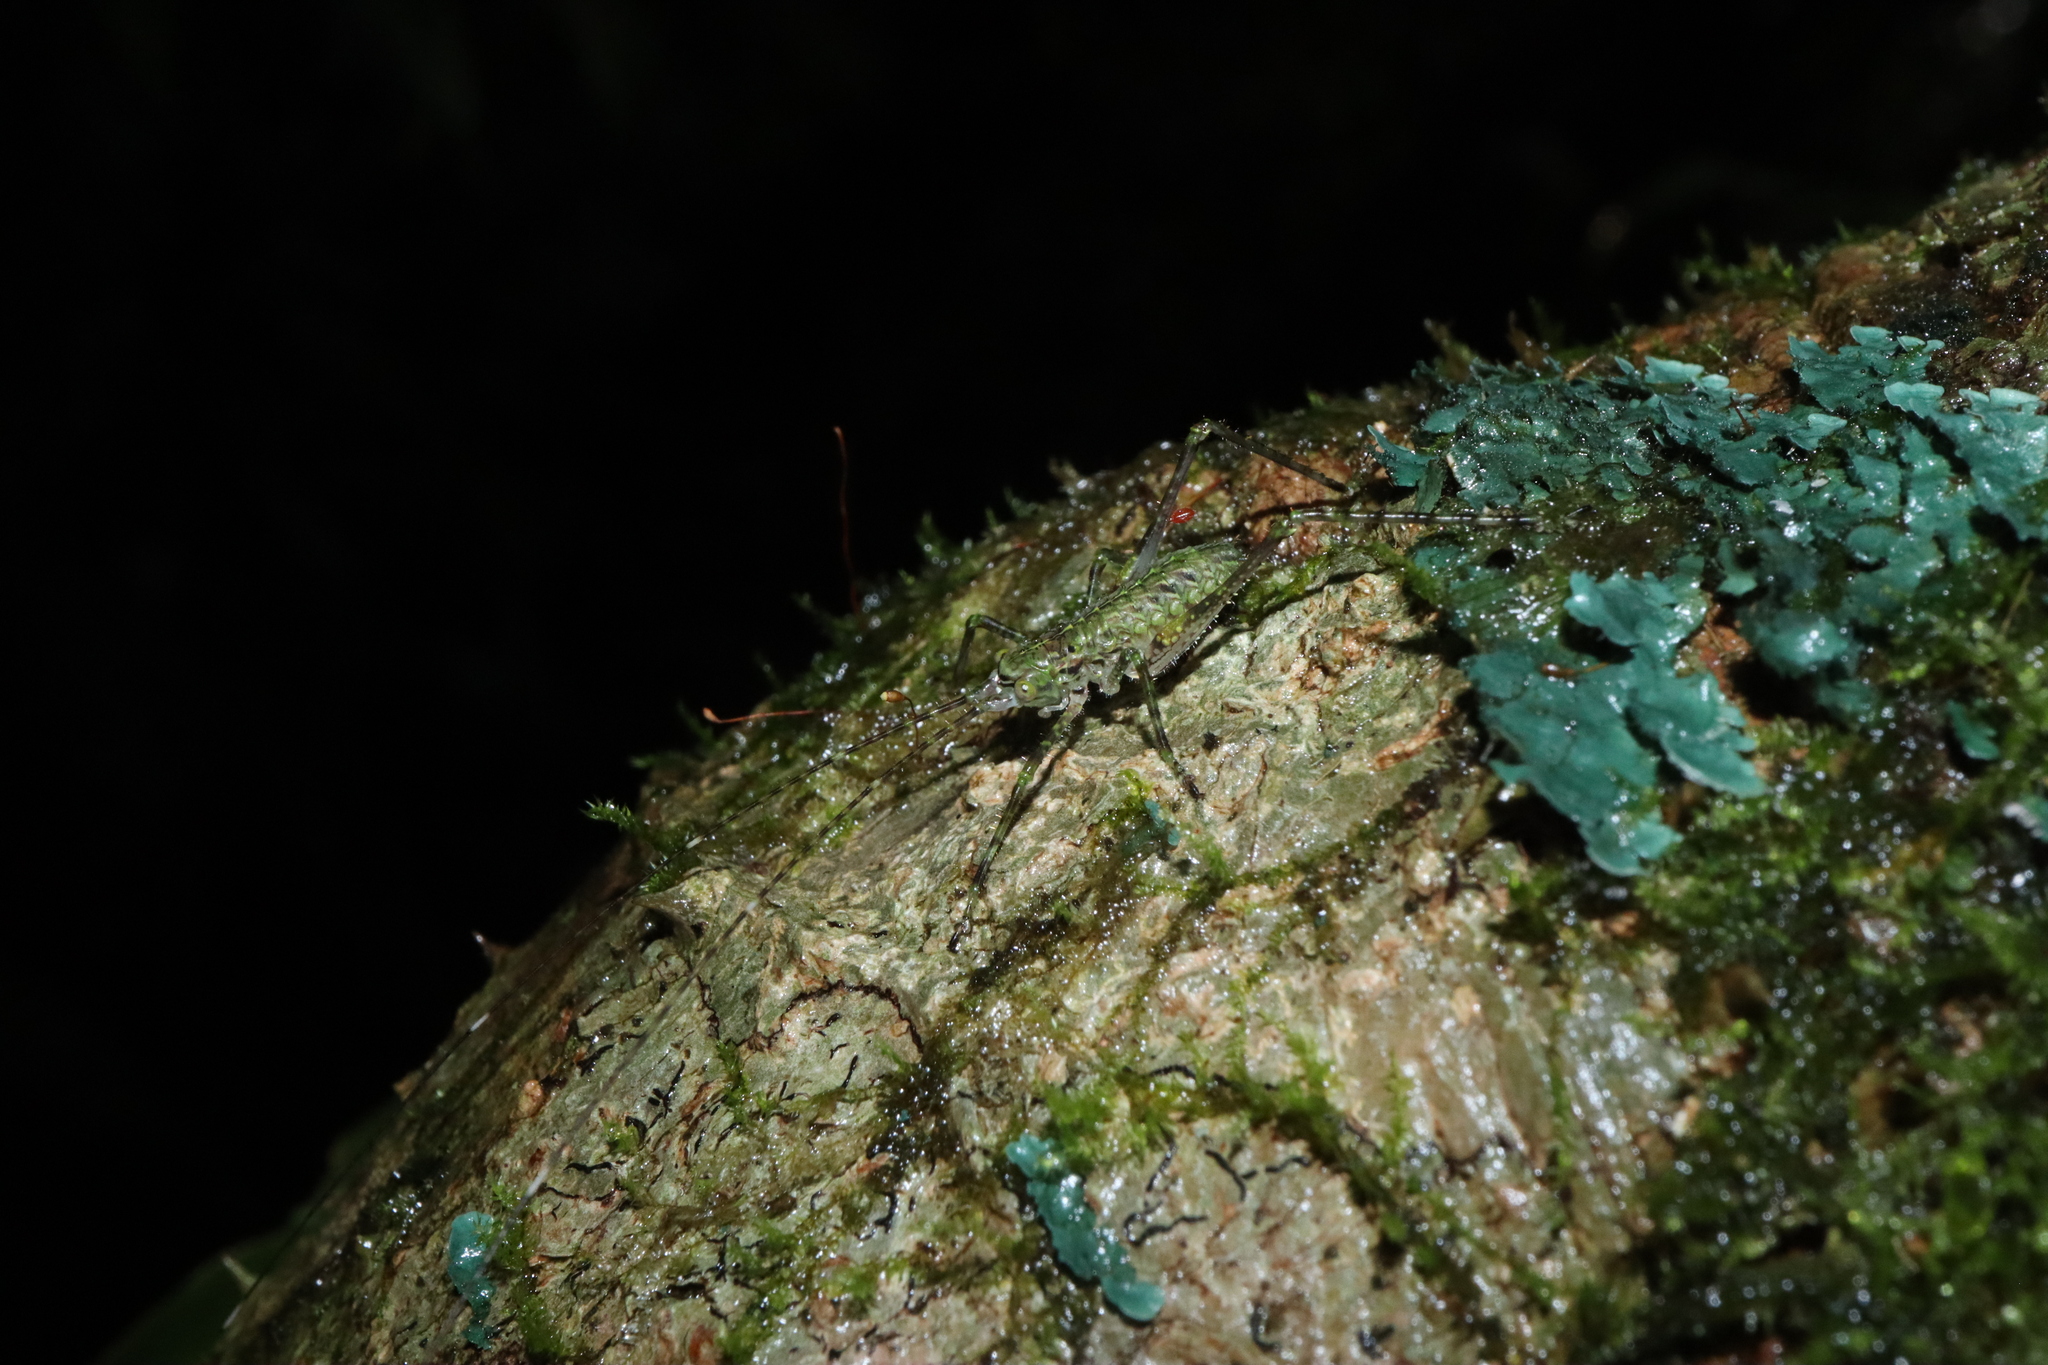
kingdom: Animalia
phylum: Arthropoda
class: Insecta
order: Orthoptera
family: Tettigoniidae
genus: Phricta
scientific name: Phricta spinosa
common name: Giant spiny forest katydid
